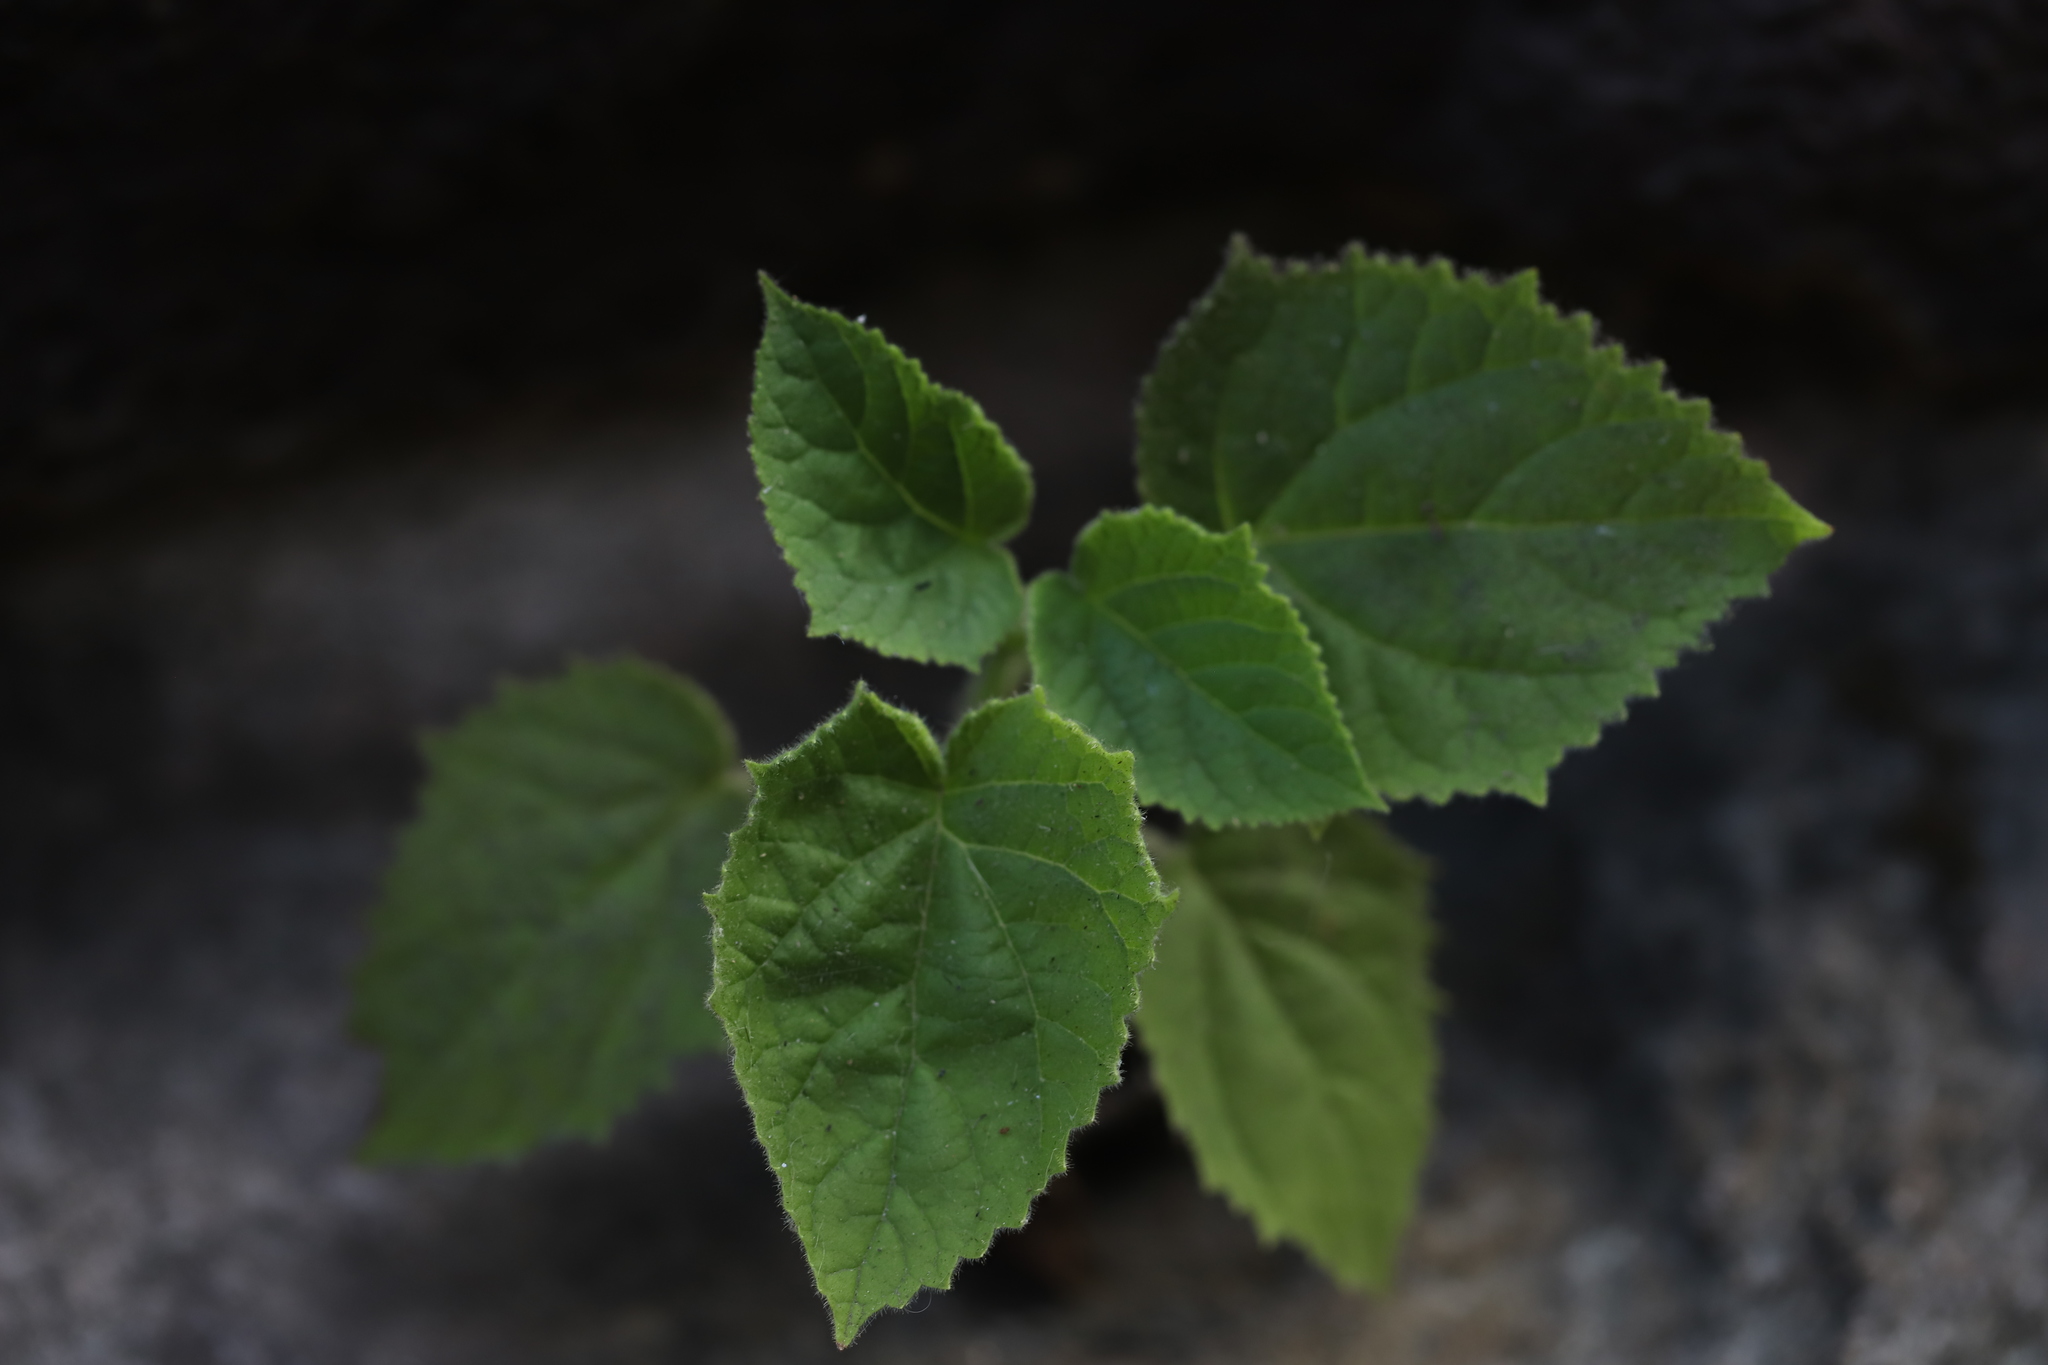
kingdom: Plantae
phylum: Tracheophyta
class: Magnoliopsida
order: Lamiales
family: Paulowniaceae
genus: Paulownia
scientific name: Paulownia tomentosa
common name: Foxglove-tree
